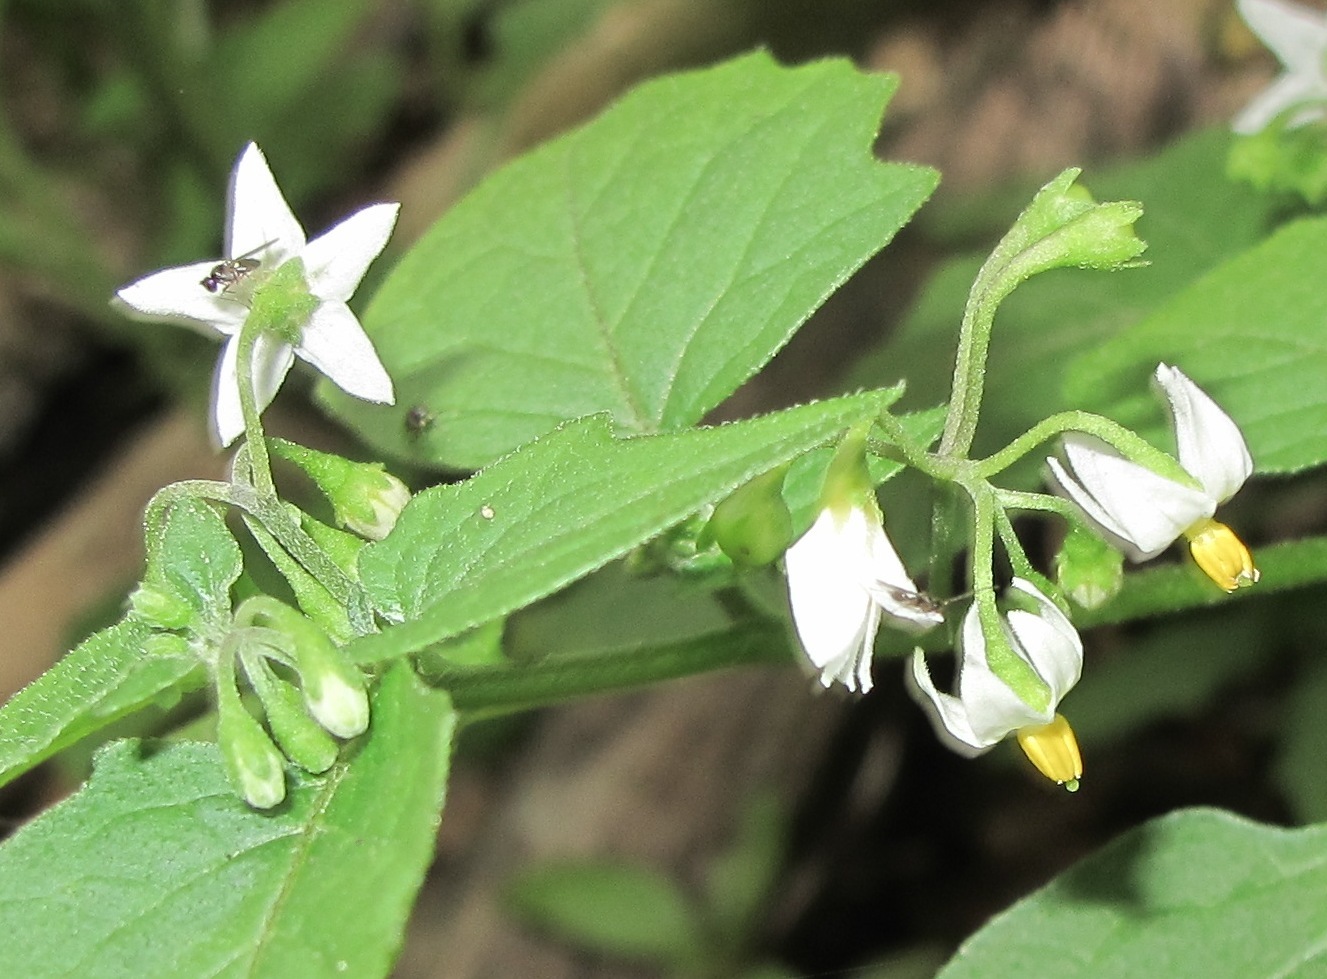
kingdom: Plantae
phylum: Tracheophyta
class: Magnoliopsida
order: Solanales
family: Solanaceae
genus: Solanum
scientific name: Solanum nigrum
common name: Black nightshade
